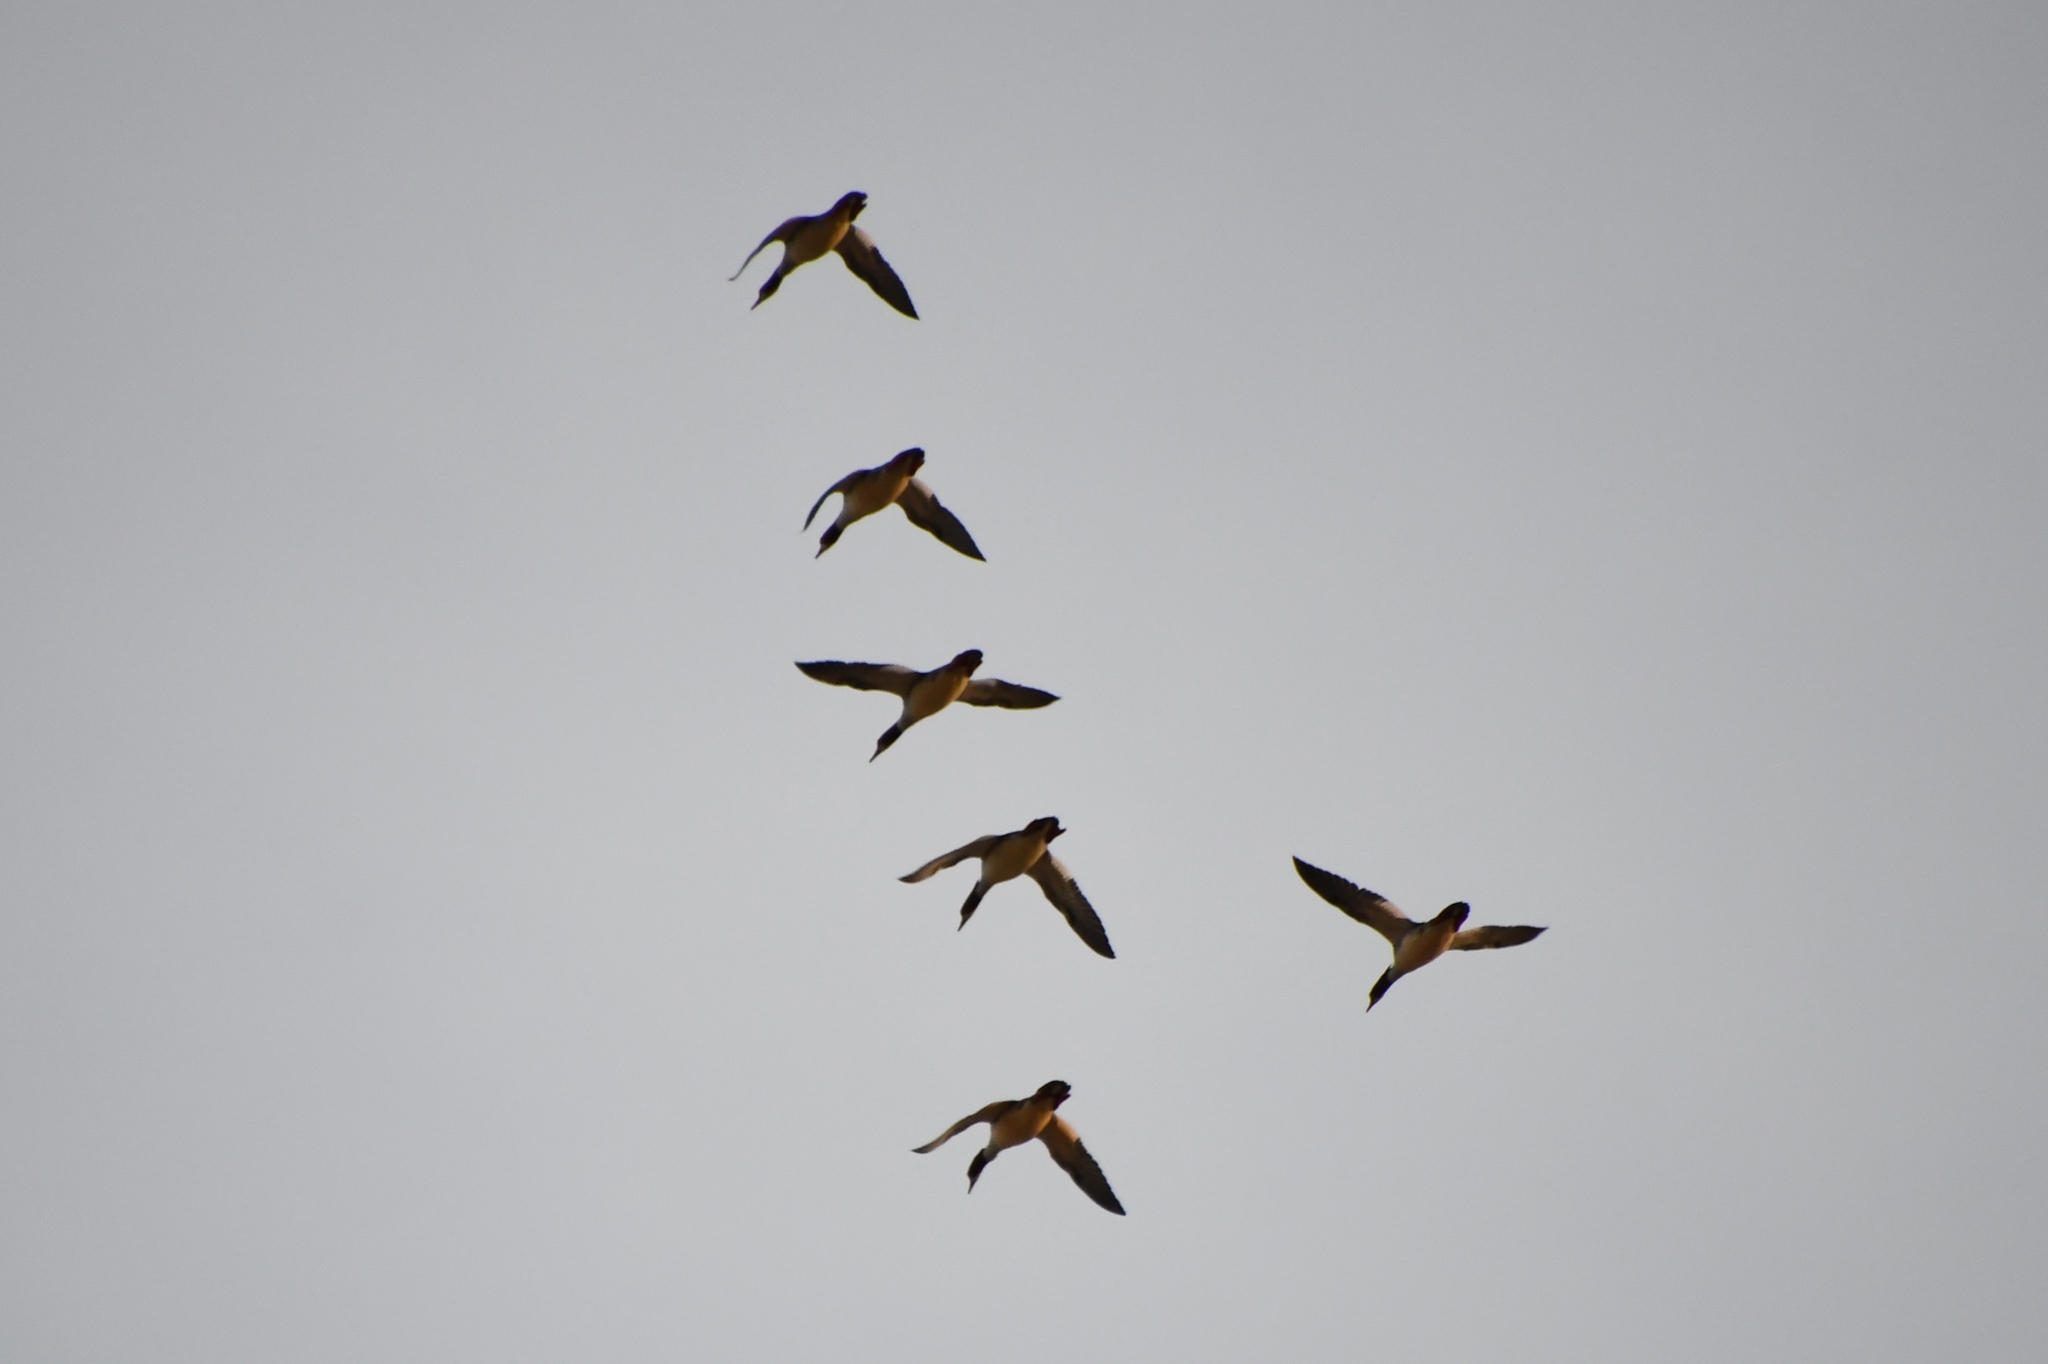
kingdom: Animalia
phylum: Chordata
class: Aves
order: Anseriformes
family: Anatidae
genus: Mergus
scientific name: Mergus merganser
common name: Common merganser
